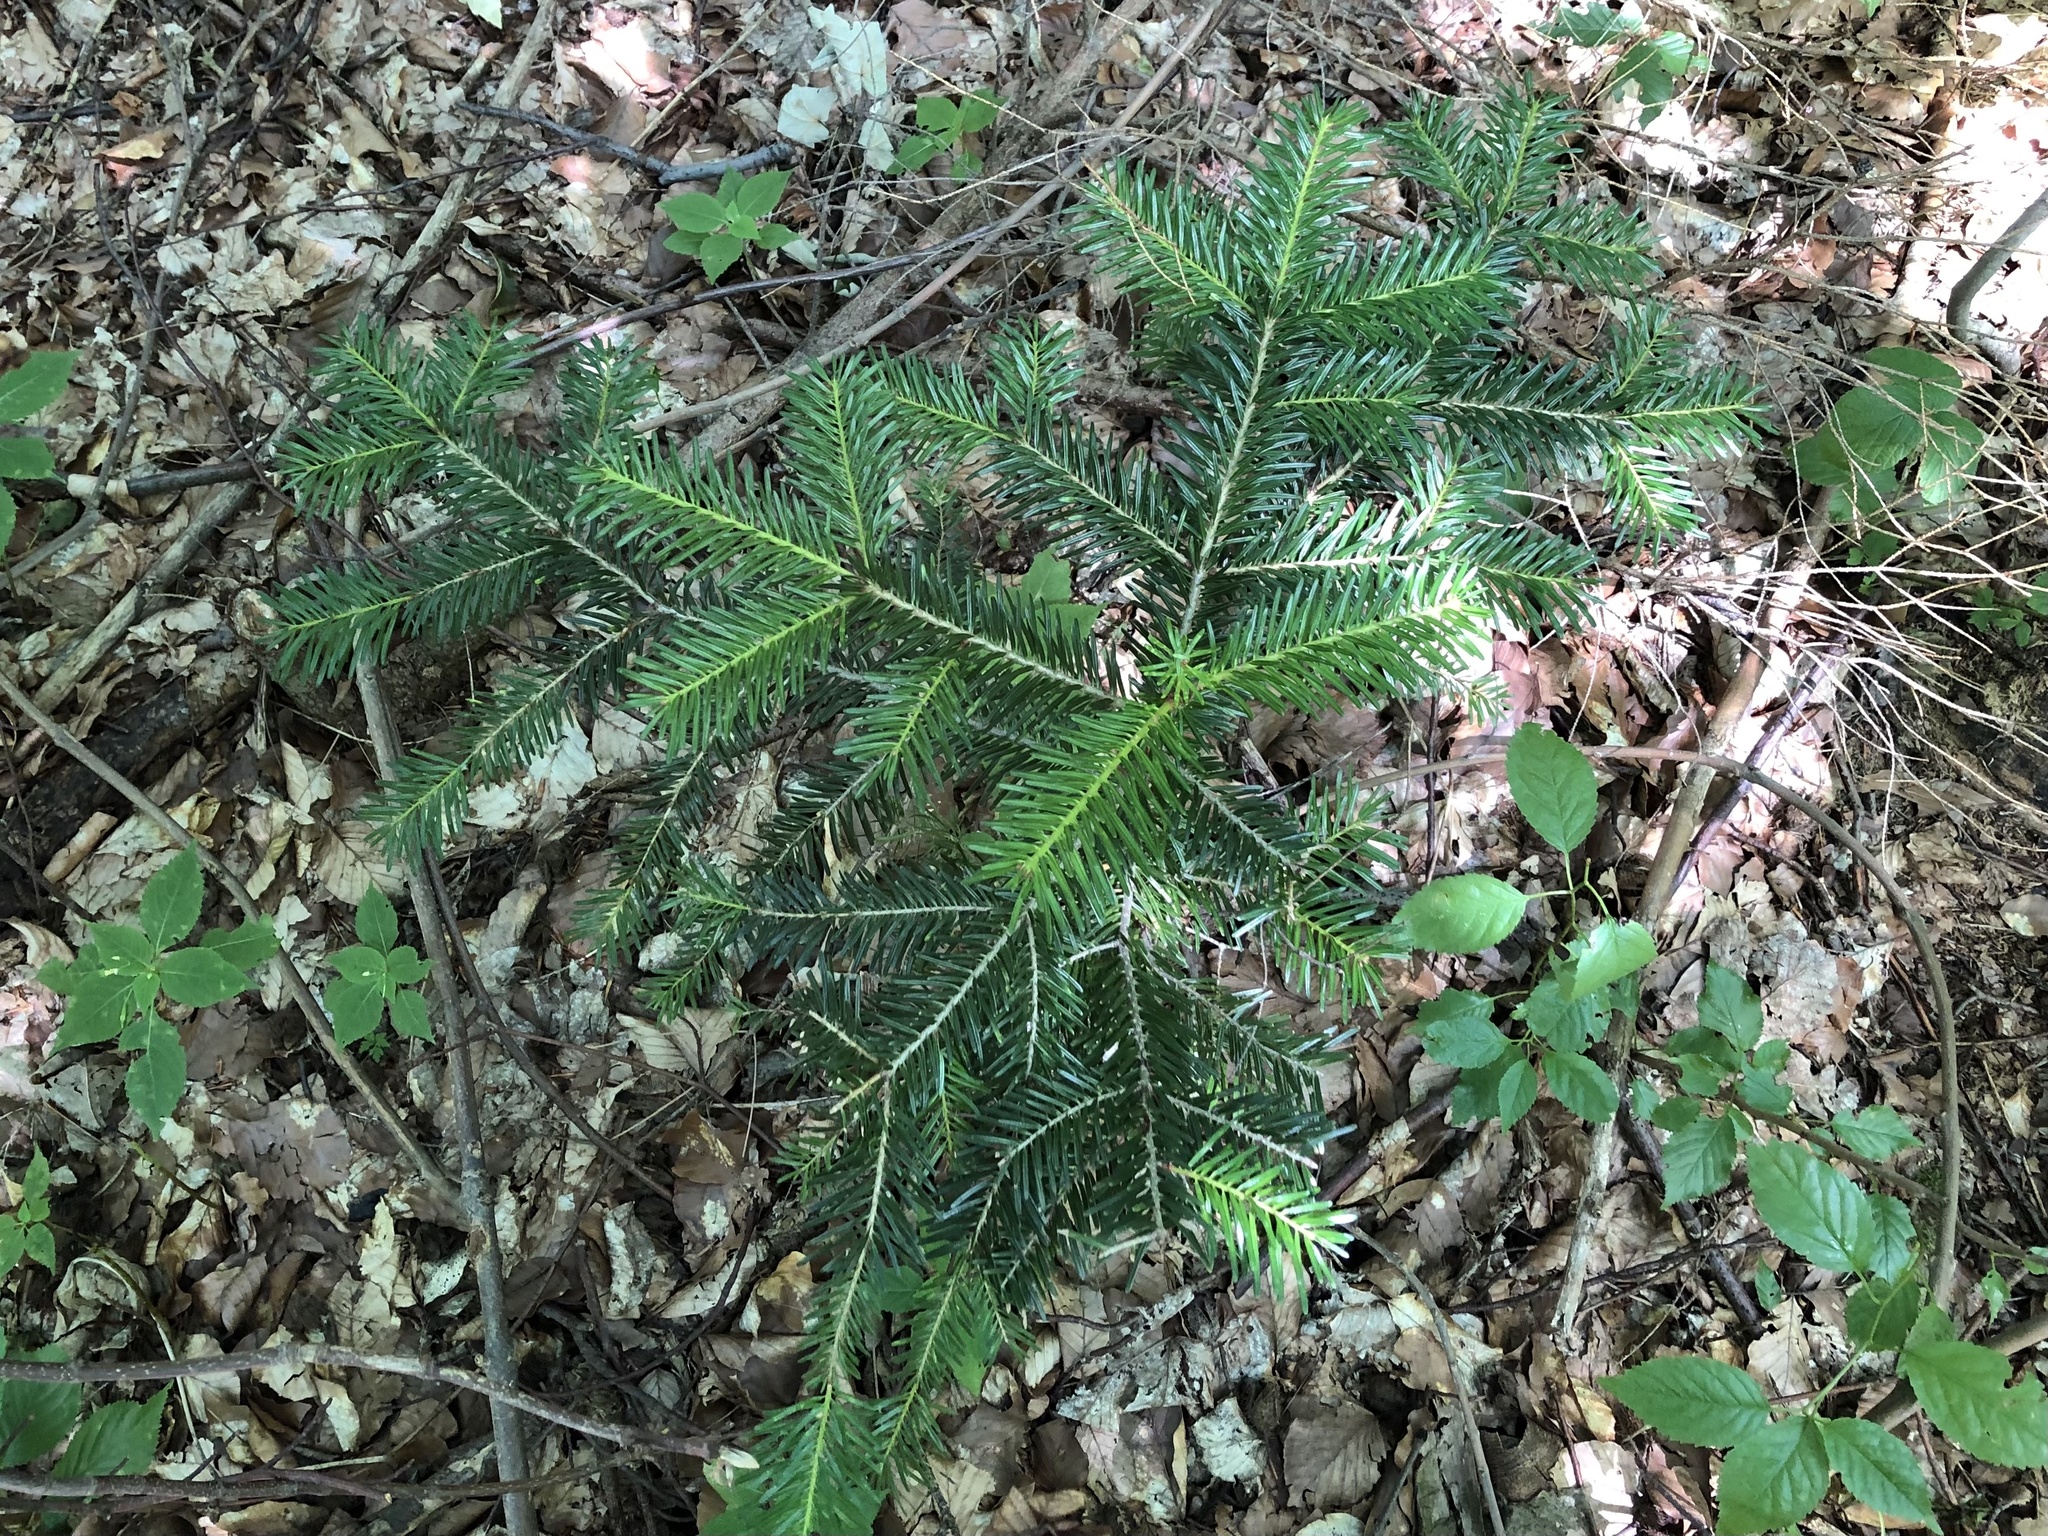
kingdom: Plantae
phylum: Tracheophyta
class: Pinopsida
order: Pinales
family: Pinaceae
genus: Abies
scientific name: Abies alba
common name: Silver fir
